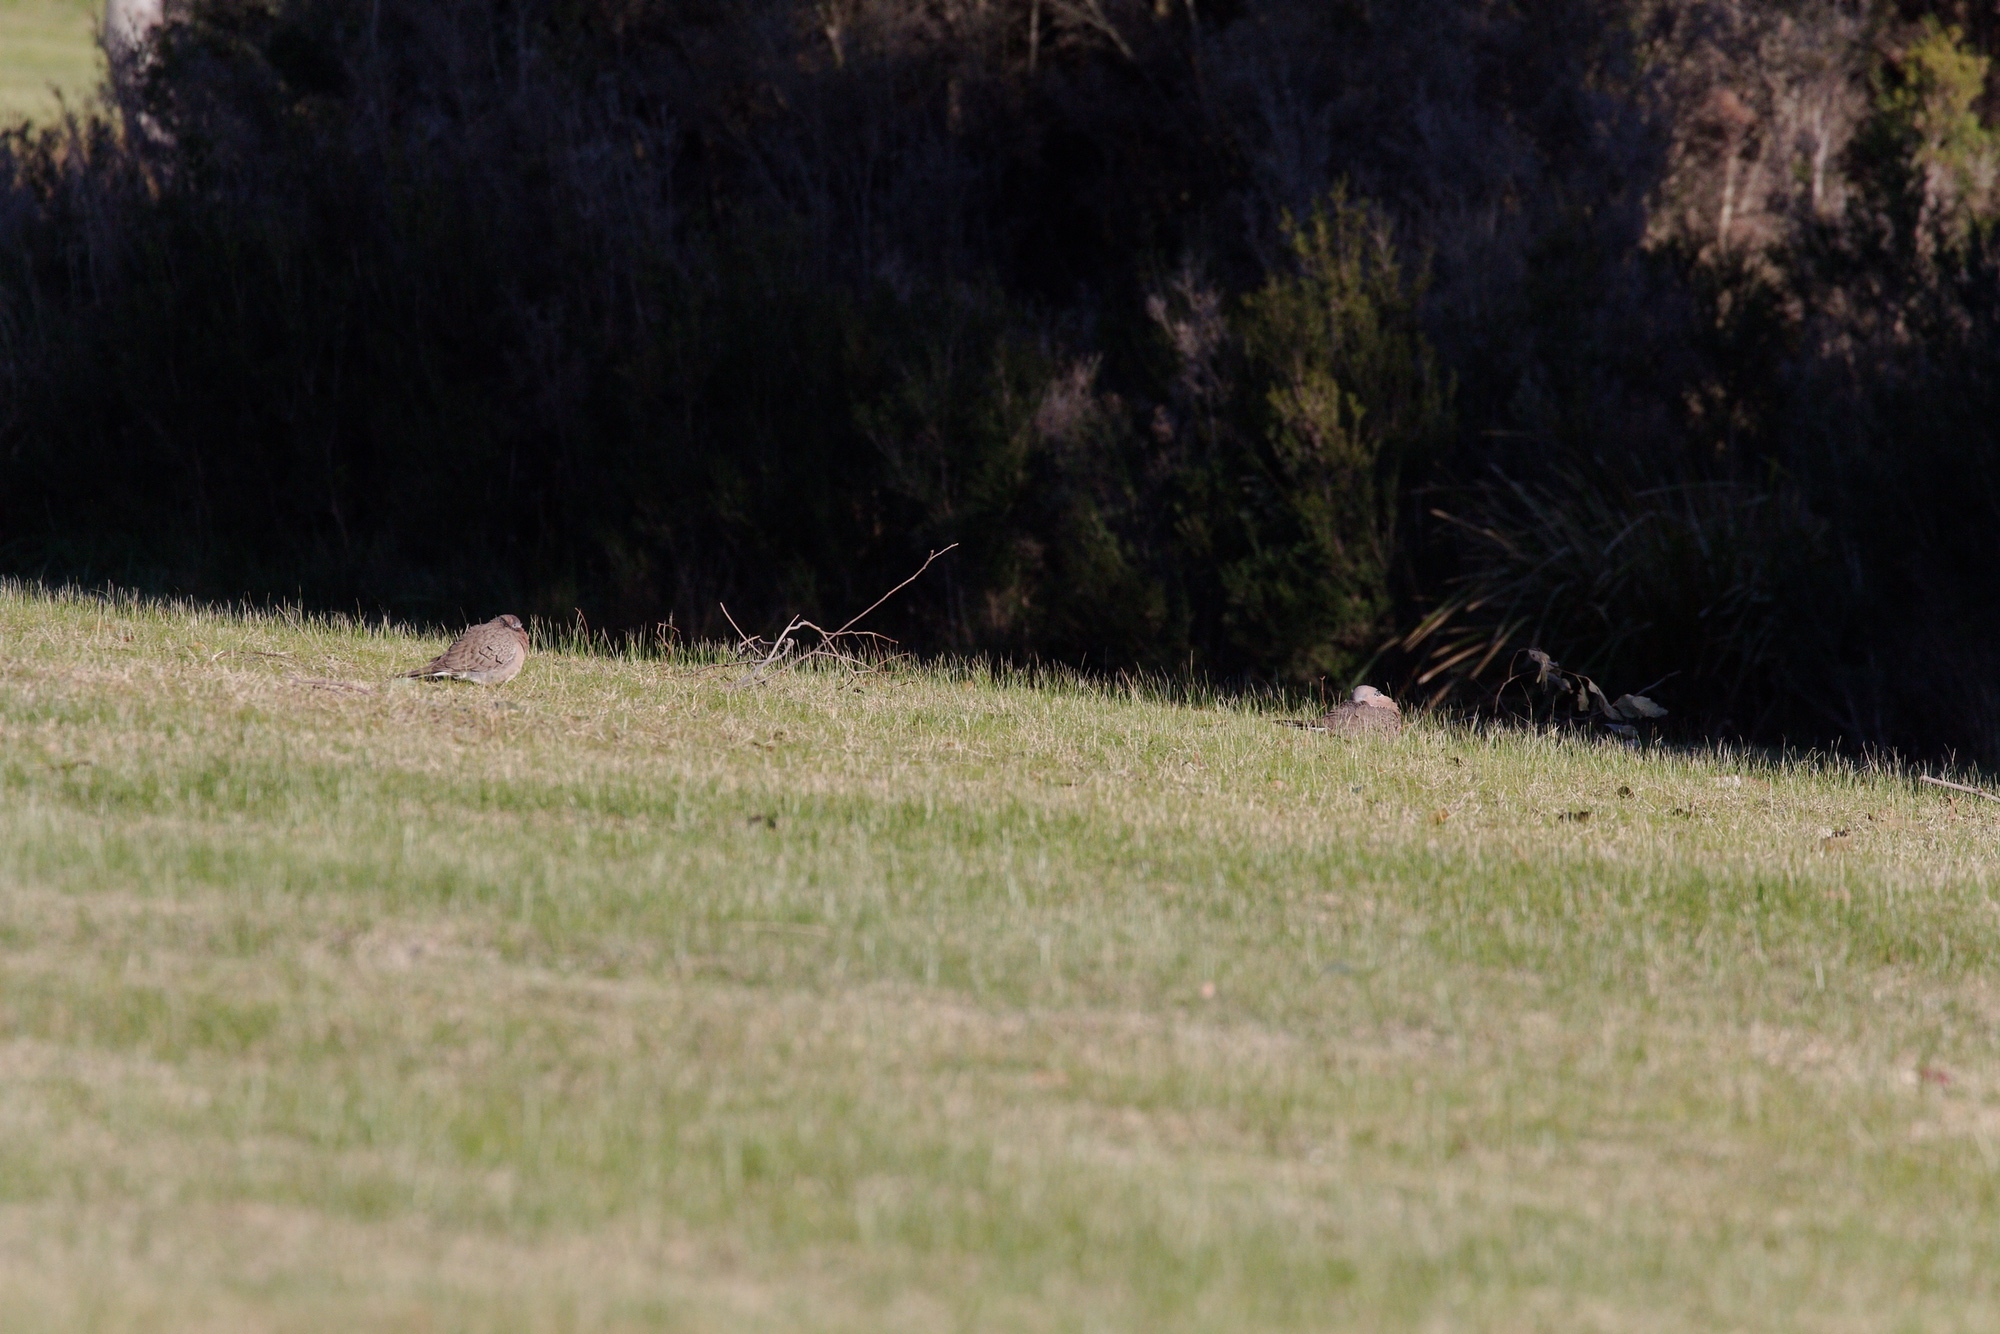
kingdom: Animalia
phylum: Chordata
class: Aves
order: Columbiformes
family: Columbidae
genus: Spilopelia
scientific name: Spilopelia chinensis
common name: Spotted dove
